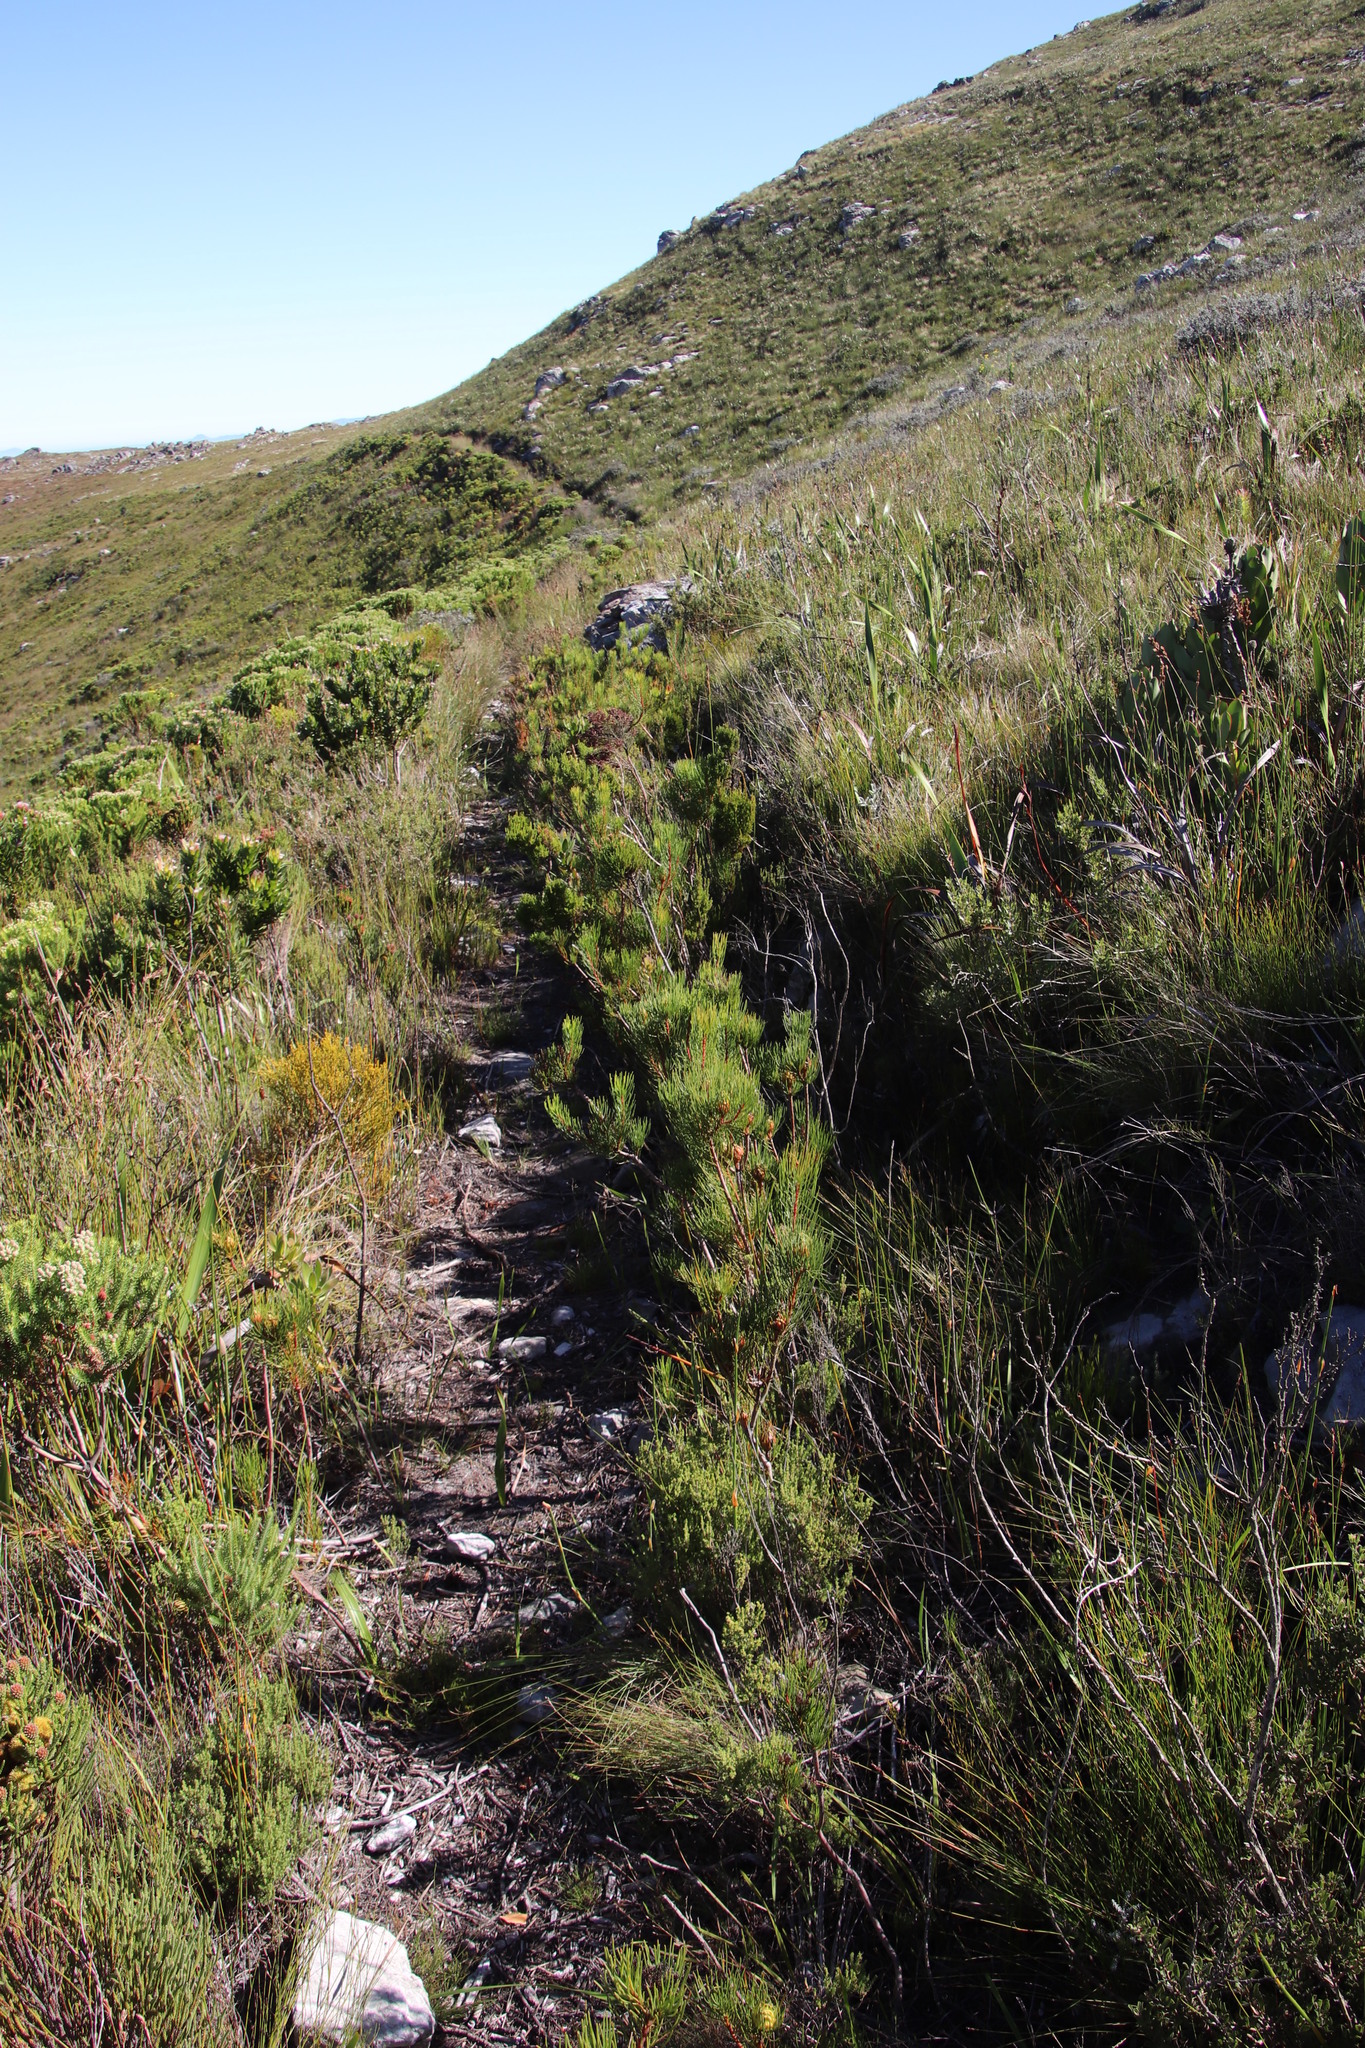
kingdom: Plantae
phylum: Tracheophyta
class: Magnoliopsida
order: Proteales
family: Proteaceae
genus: Aulax
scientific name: Aulax cancellata
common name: Channel-leaf featherbush
